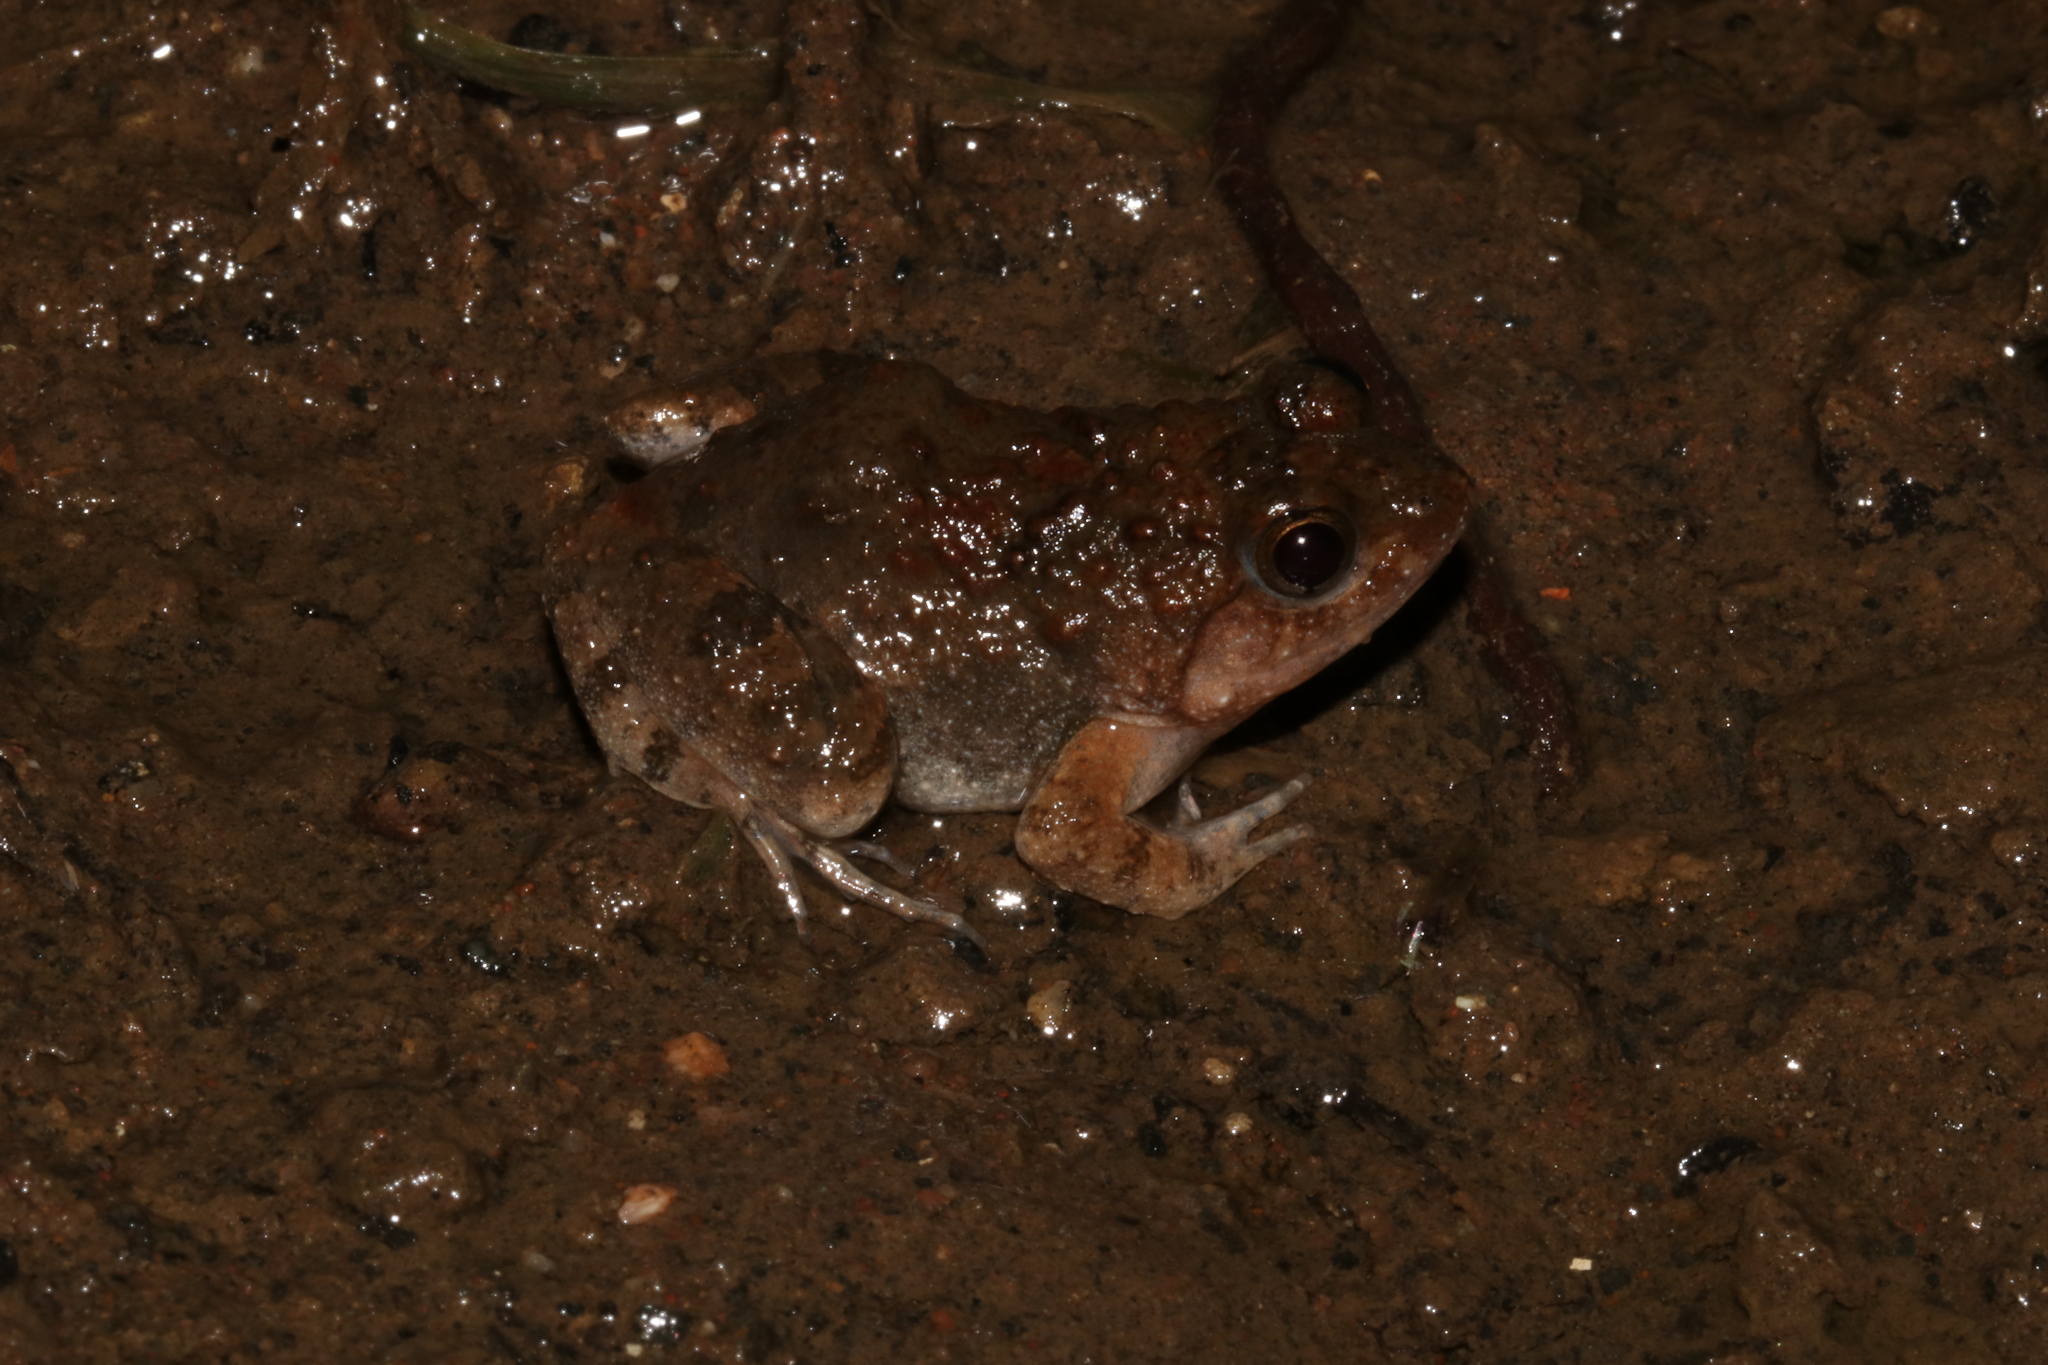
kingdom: Animalia
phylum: Chordata
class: Amphibia
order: Anura
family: Phrynobatrachidae
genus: Phrynobatrachus
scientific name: Phrynobatrachus natalensis
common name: Snoring puddle frog
